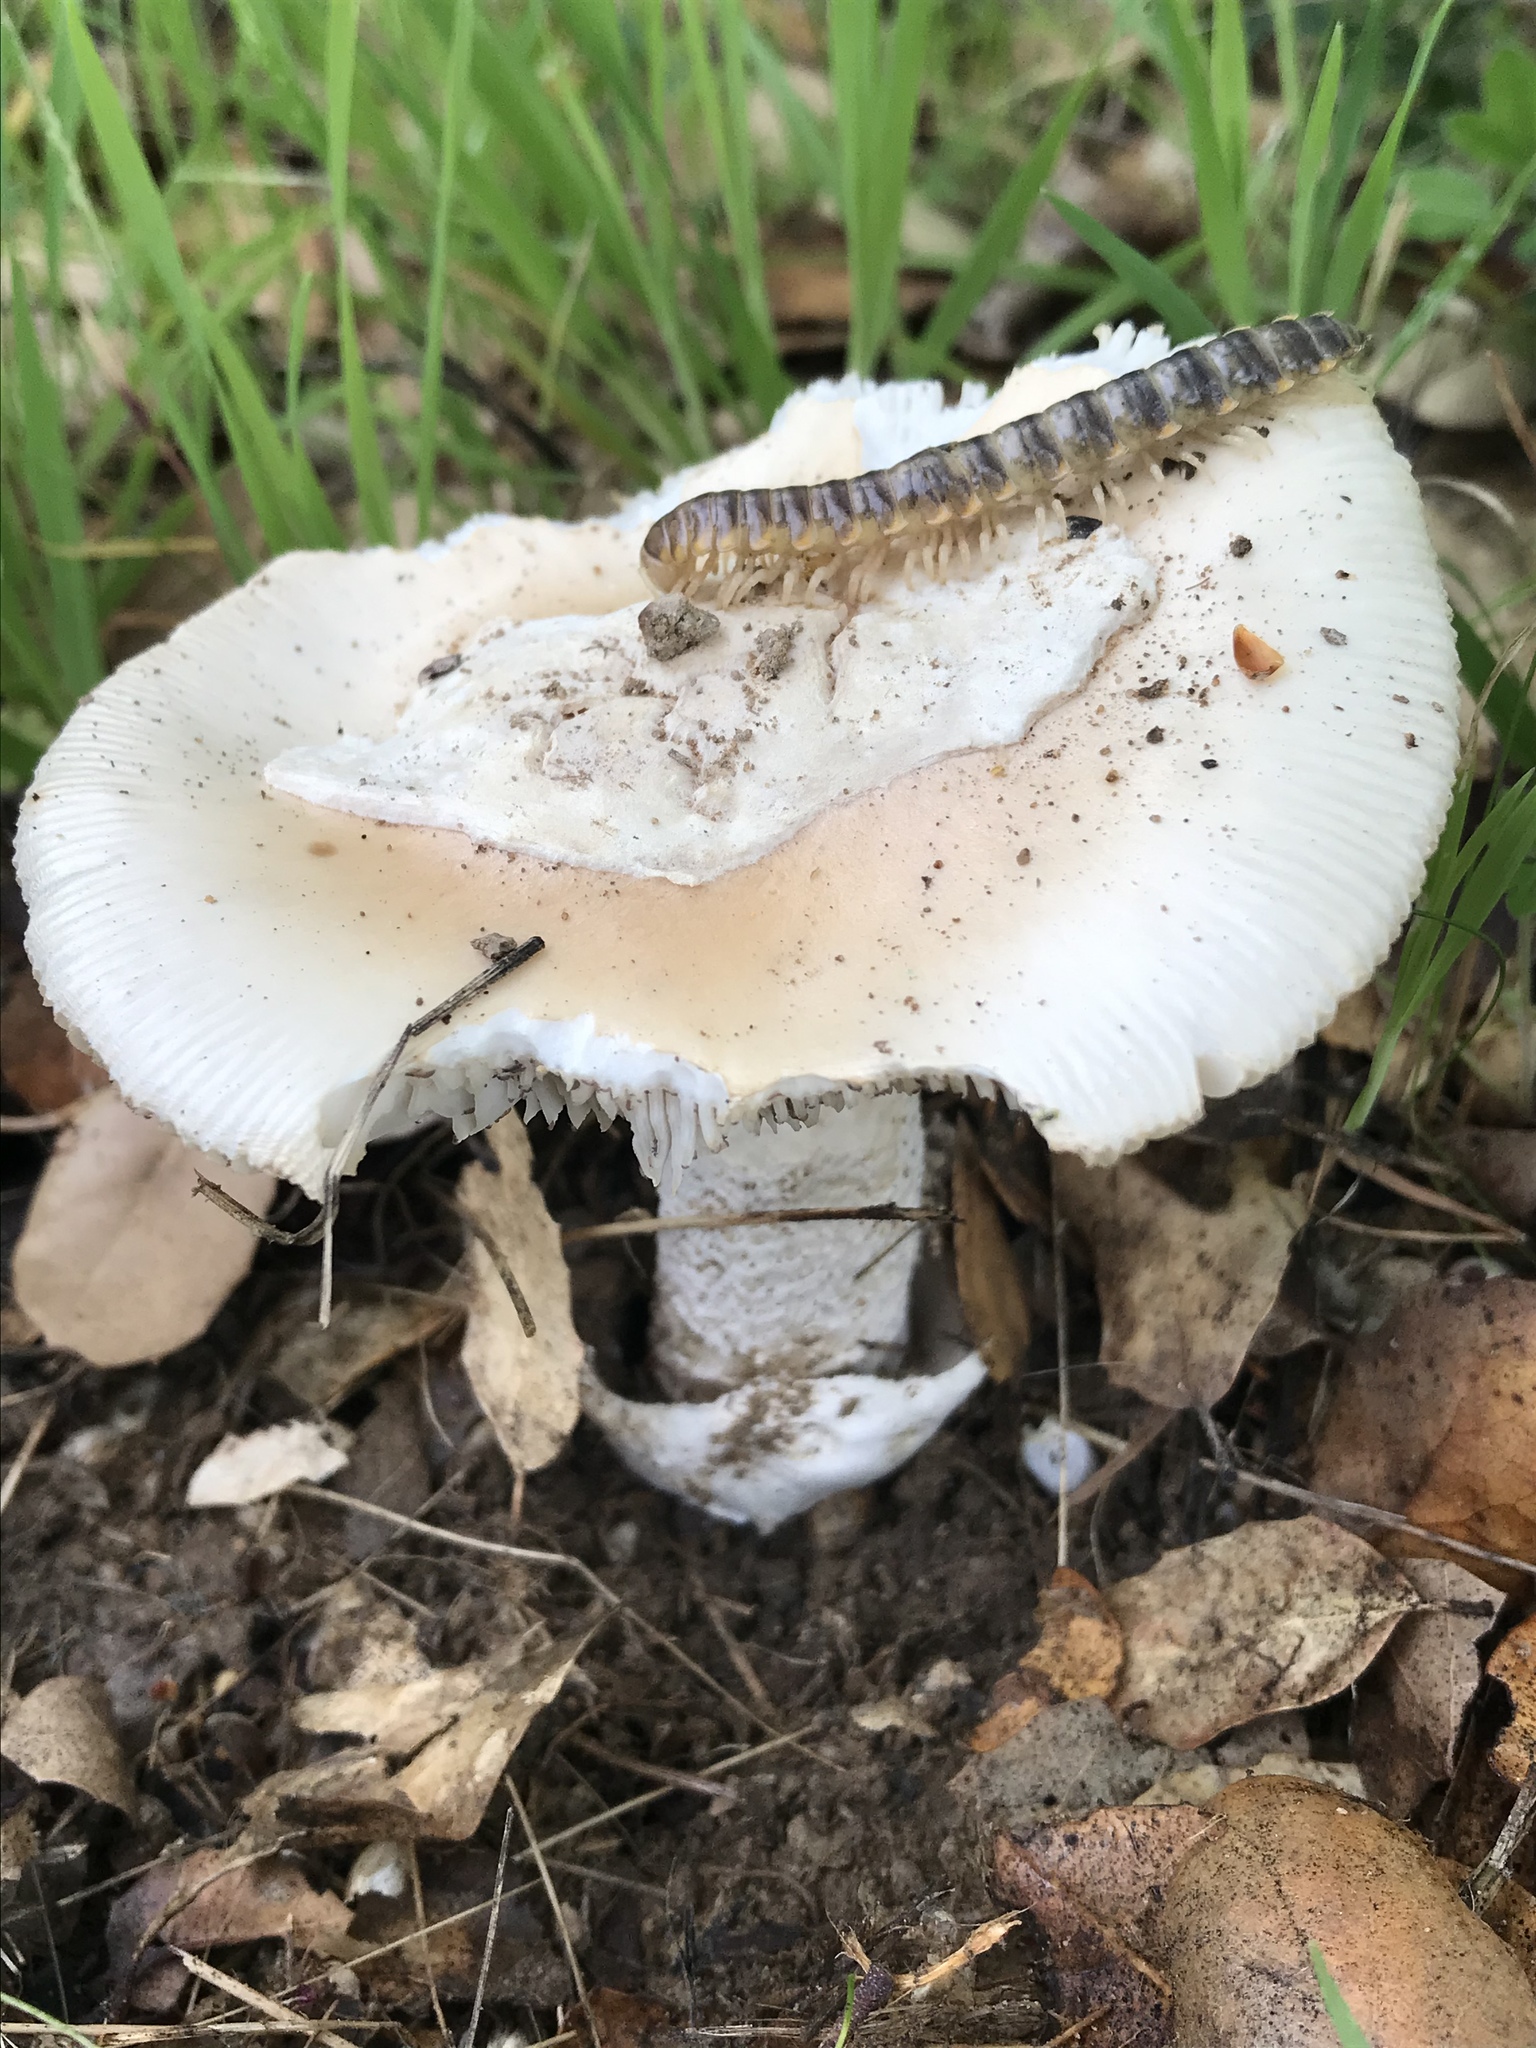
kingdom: Fungi
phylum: Basidiomycota
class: Agaricomycetes
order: Agaricales
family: Amanitaceae
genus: Amanita
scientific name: Amanita velosa
